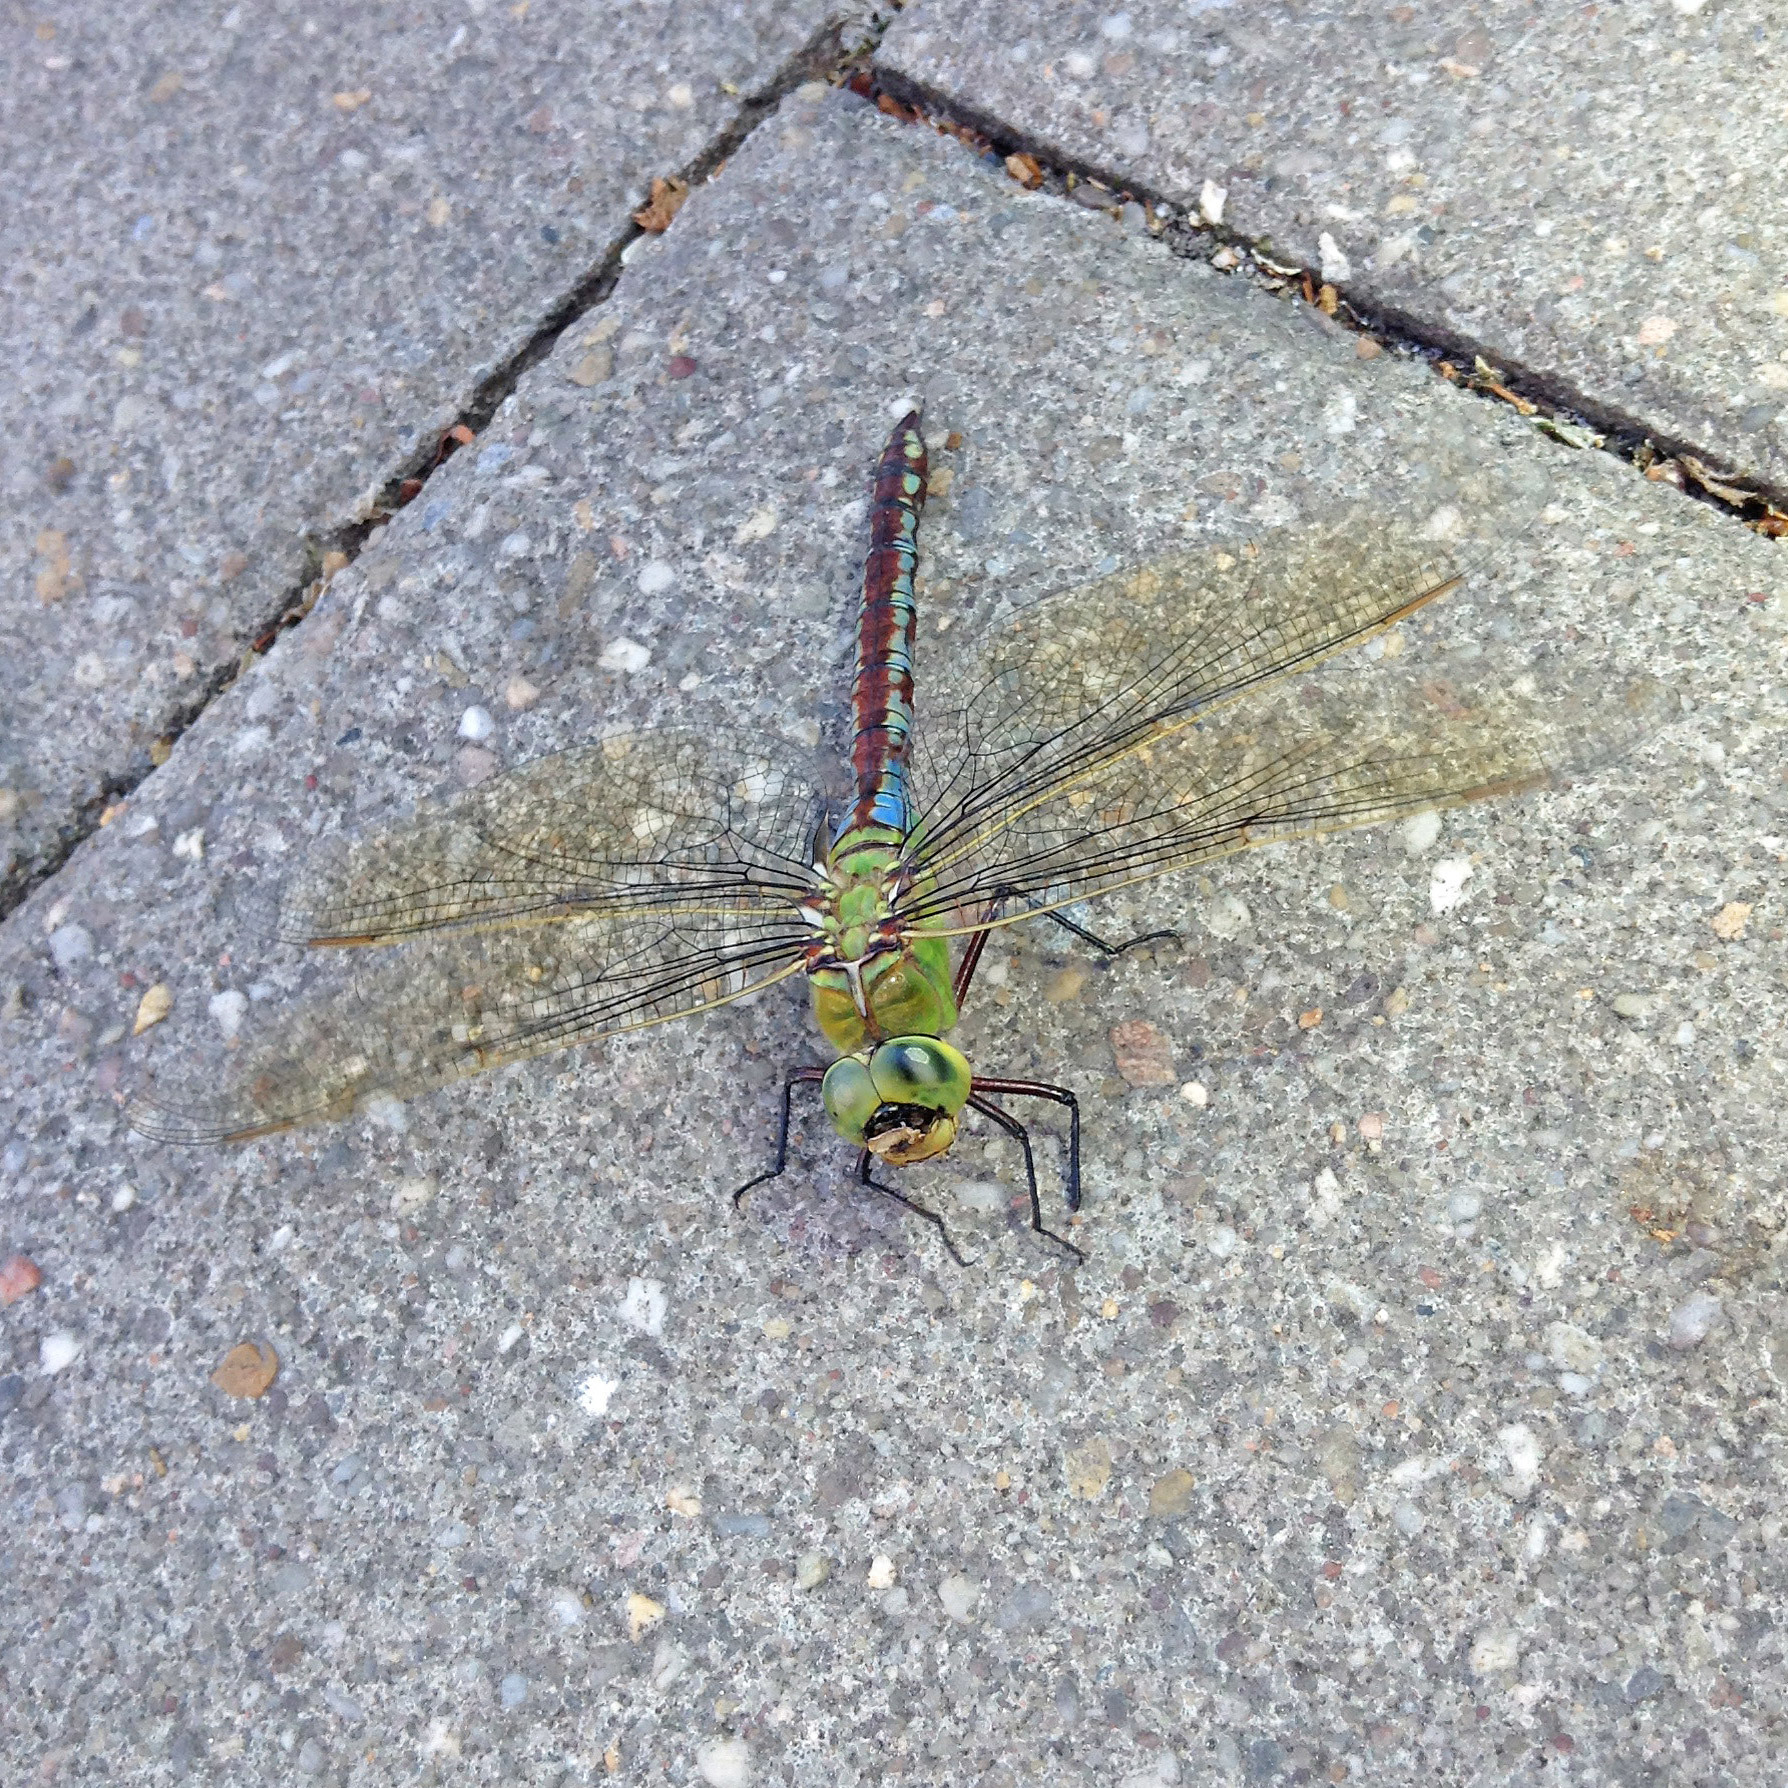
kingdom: Animalia
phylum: Arthropoda
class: Insecta
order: Odonata
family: Aeshnidae
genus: Anax
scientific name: Anax imperator
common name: Emperor dragonfly
